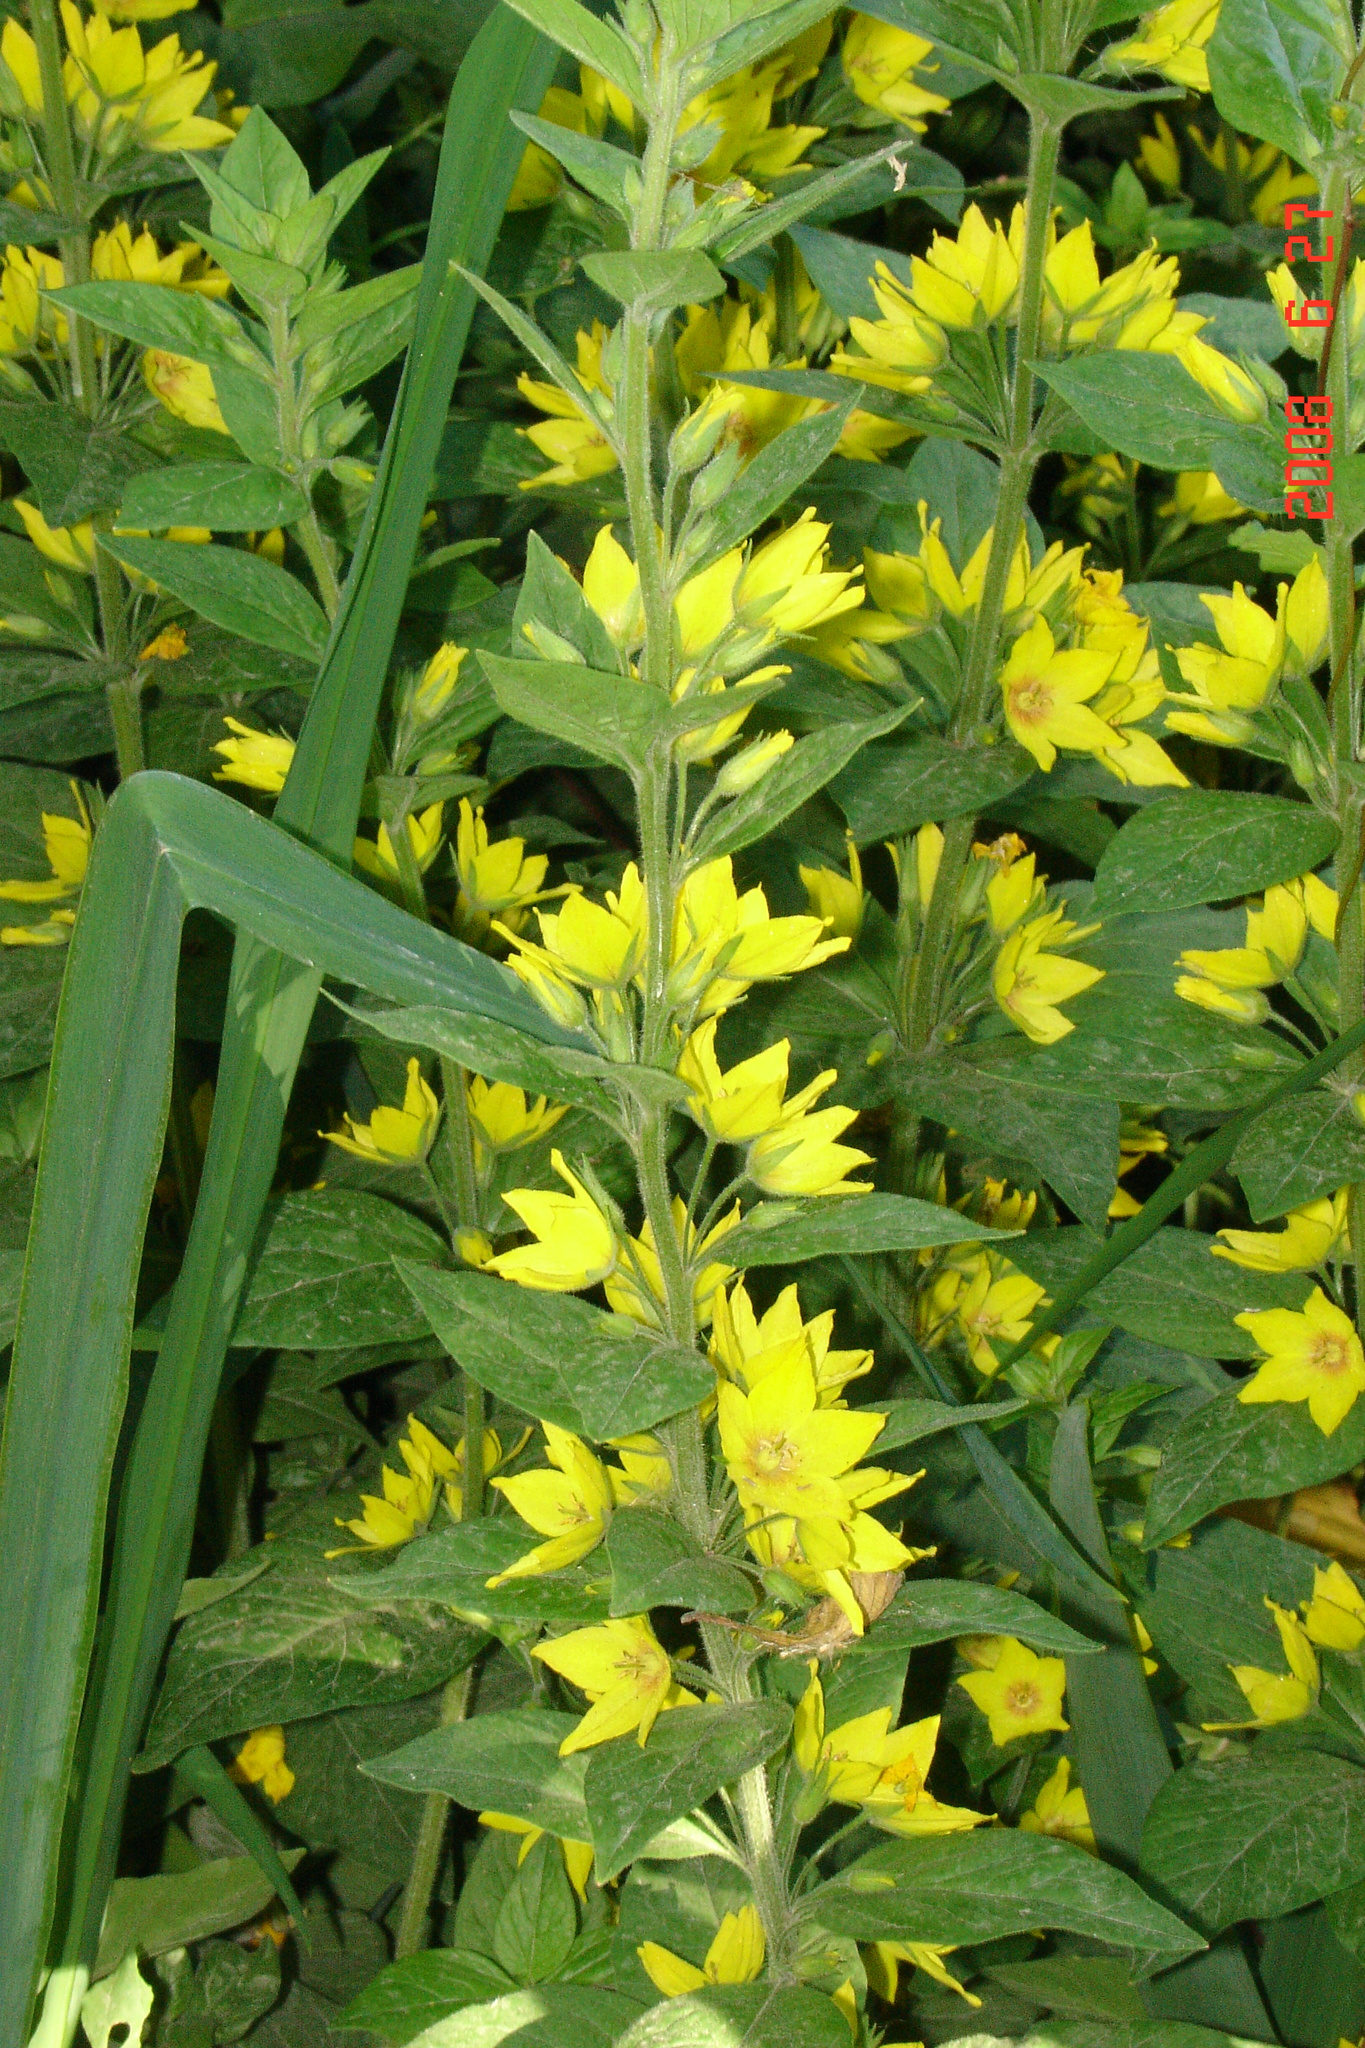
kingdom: Plantae
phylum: Tracheophyta
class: Magnoliopsida
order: Ericales
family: Primulaceae
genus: Lysimachia
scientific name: Lysimachia punctata
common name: Dotted loosestrife
